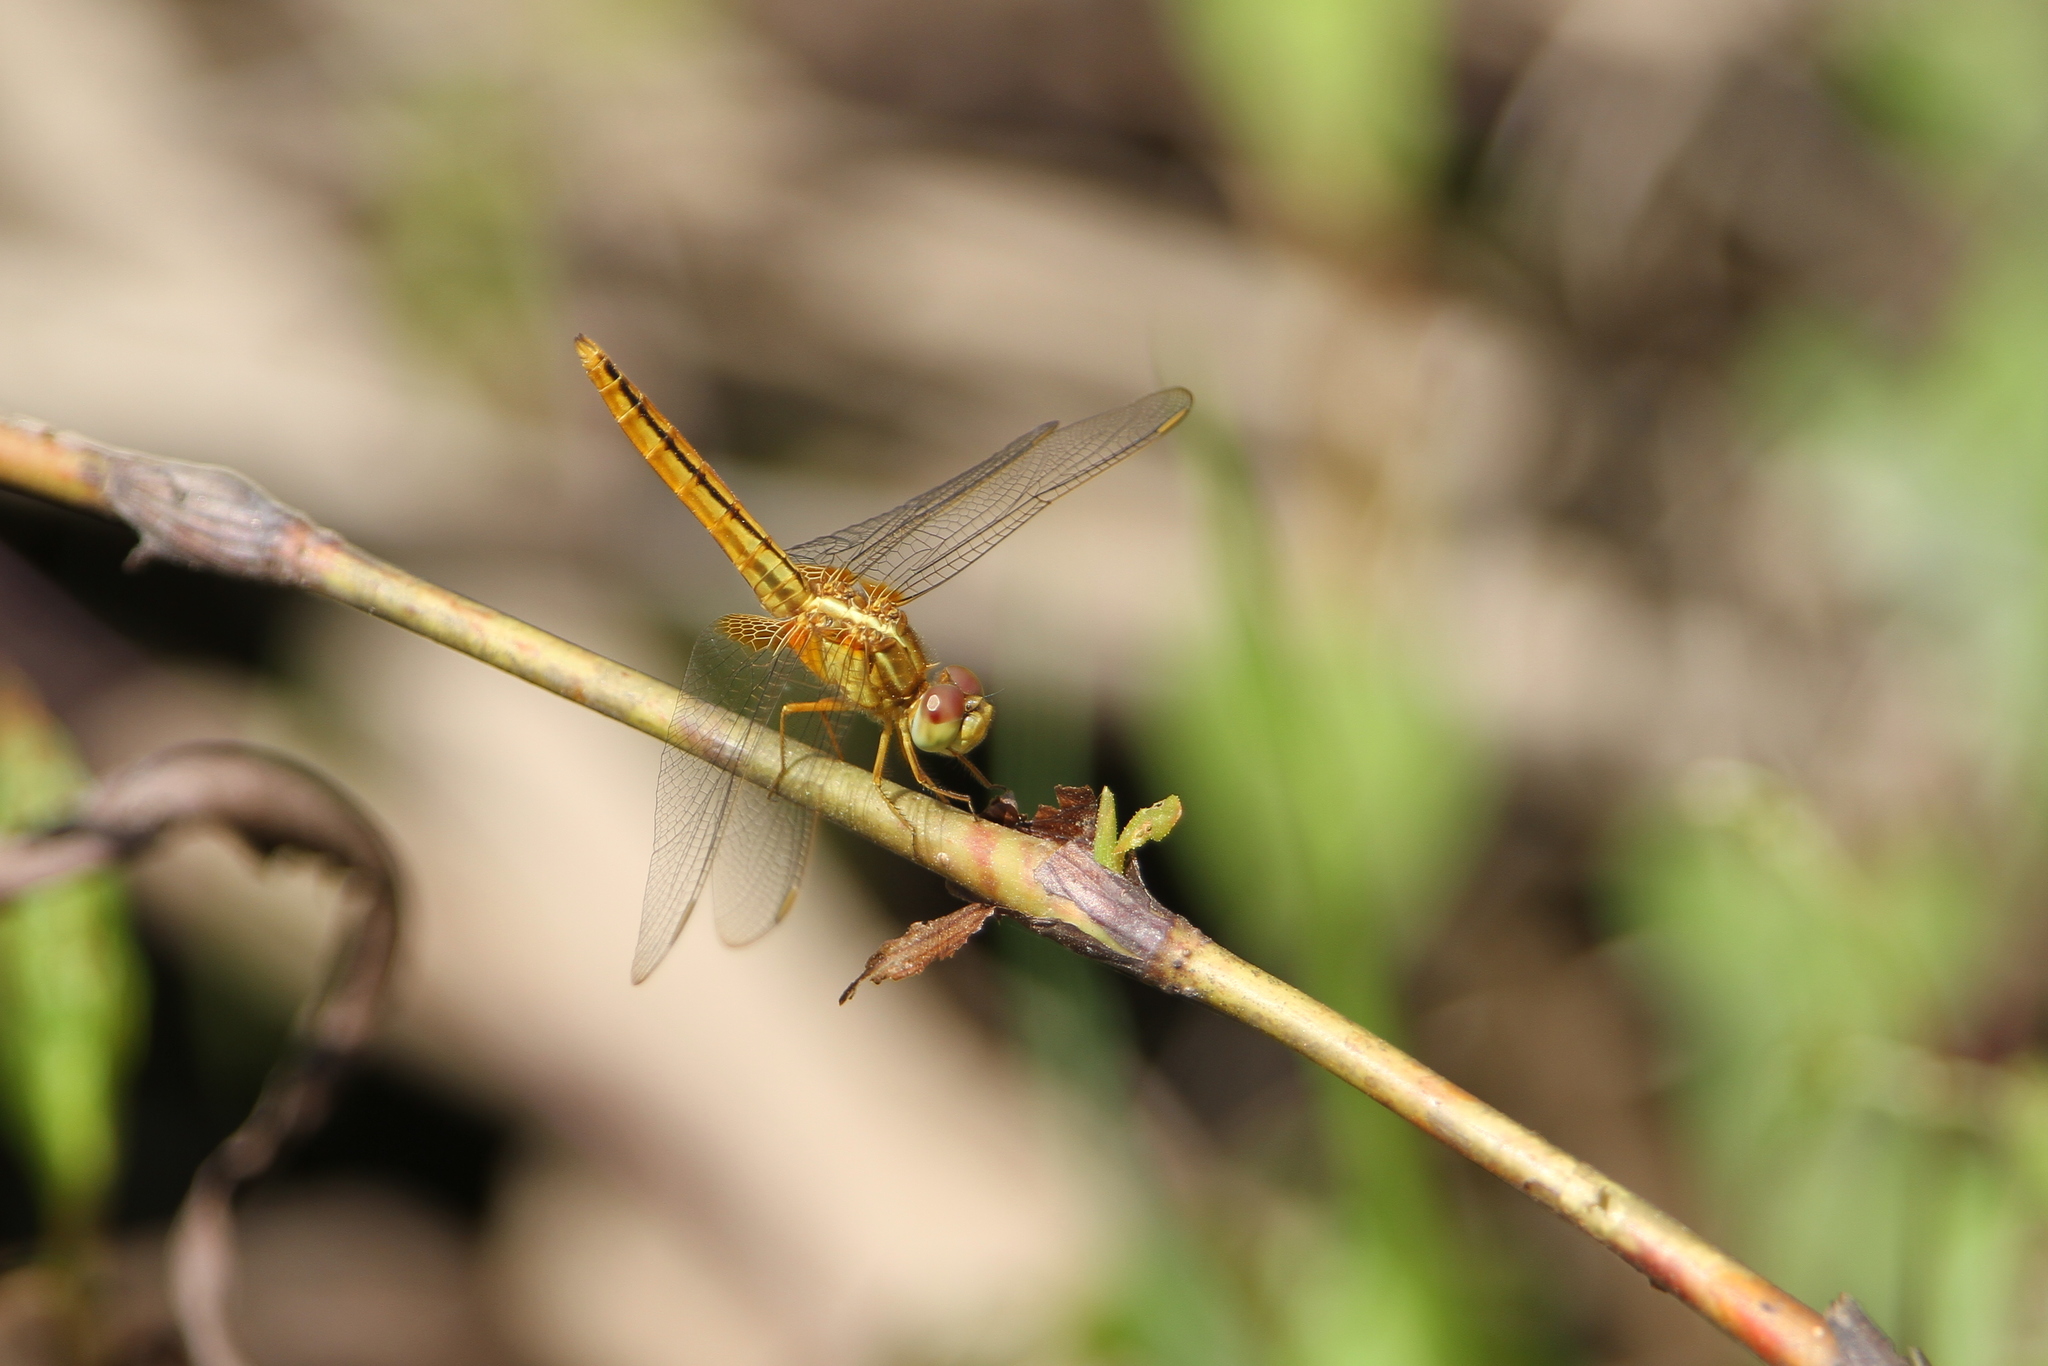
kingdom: Animalia
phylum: Arthropoda
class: Insecta
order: Odonata
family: Libellulidae
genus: Crocothemis
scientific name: Crocothemis servilia
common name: Scarlet skimmer
